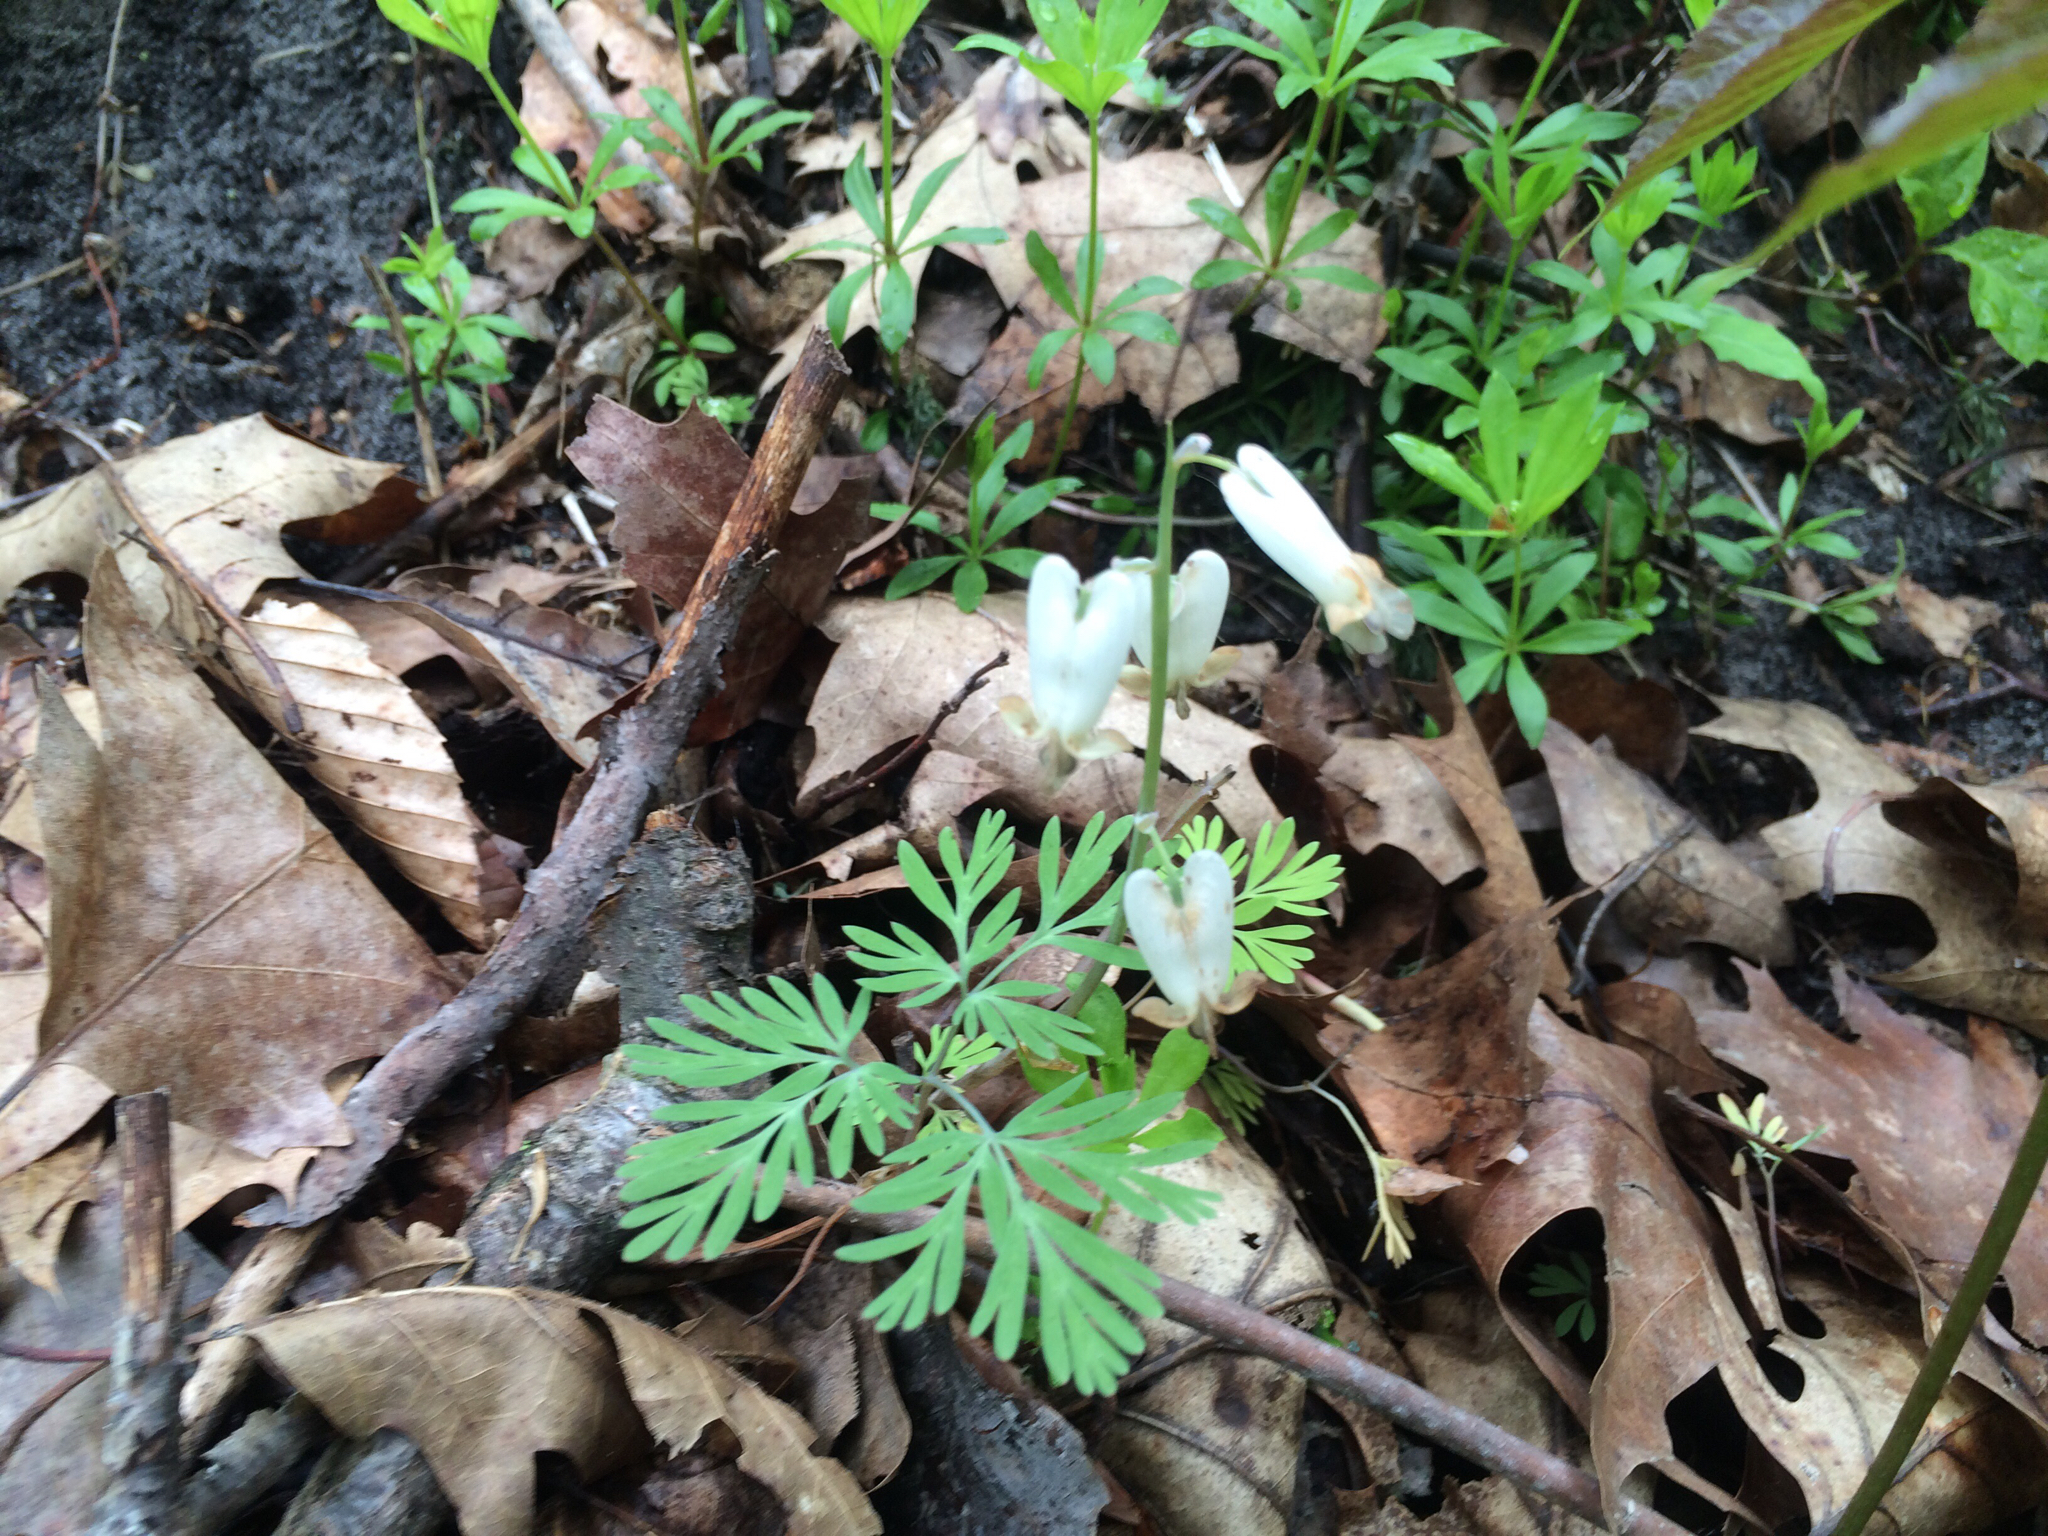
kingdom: Plantae
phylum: Tracheophyta
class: Magnoliopsida
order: Ranunculales
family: Papaveraceae
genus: Dicentra
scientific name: Dicentra canadensis
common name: Squirrel-corn
